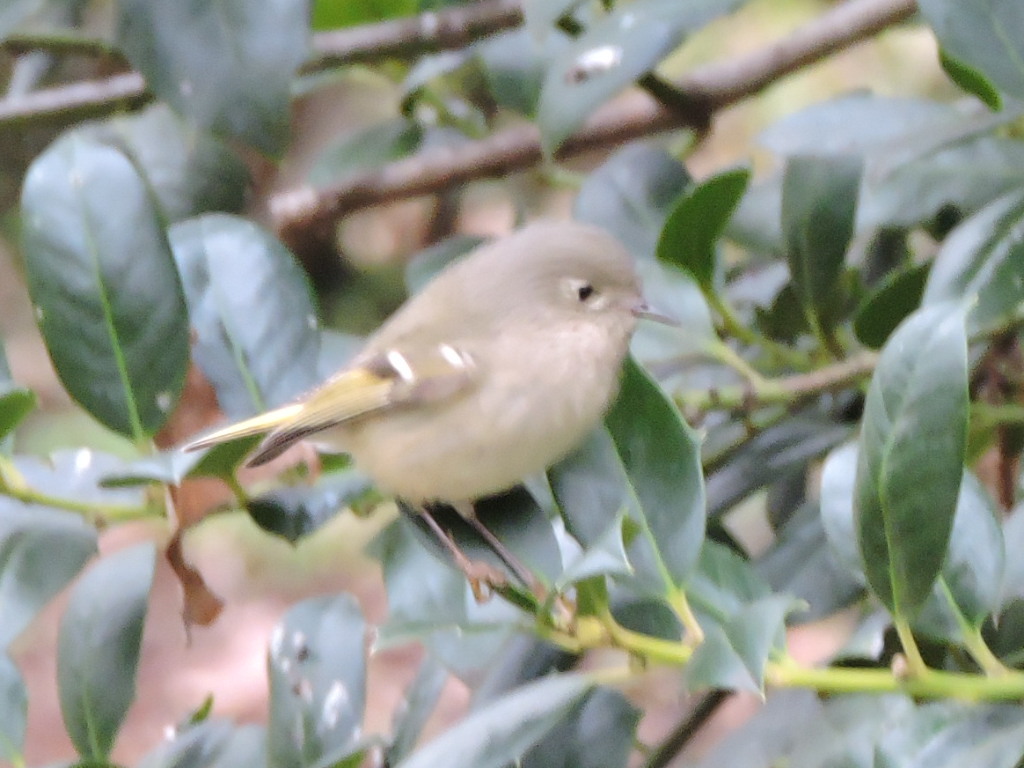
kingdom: Animalia
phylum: Chordata
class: Aves
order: Passeriformes
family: Regulidae
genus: Regulus
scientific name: Regulus calendula
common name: Ruby-crowned kinglet
